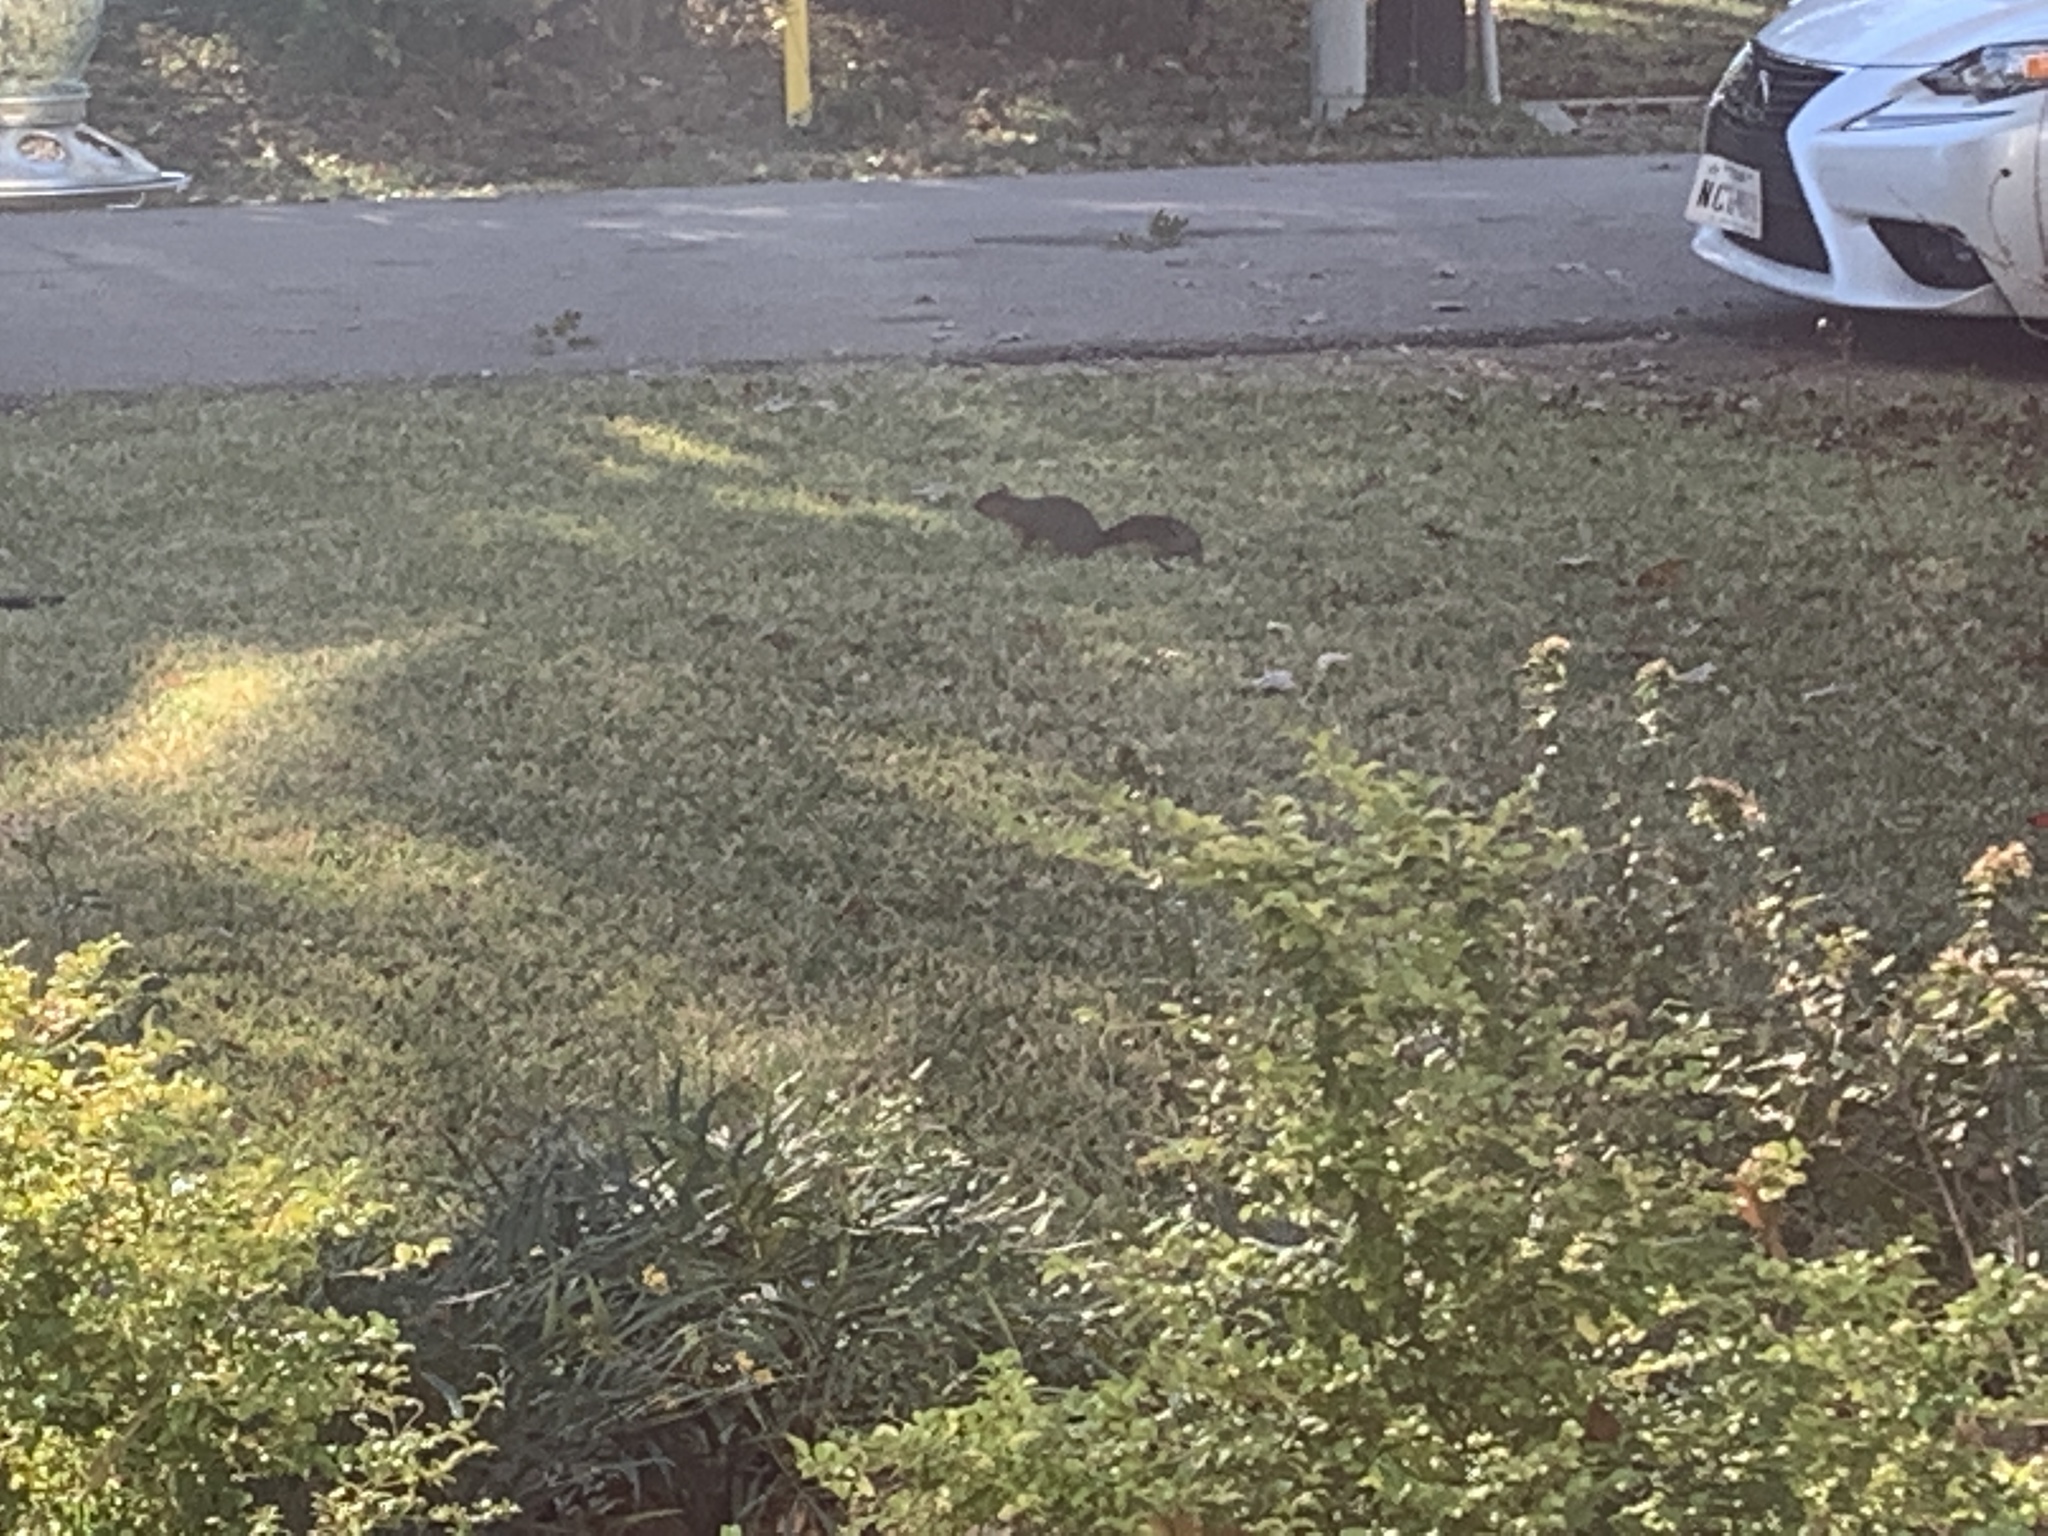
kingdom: Animalia
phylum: Chordata
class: Mammalia
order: Rodentia
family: Sciuridae
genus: Sciurus
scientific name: Sciurus niger
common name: Fox squirrel
